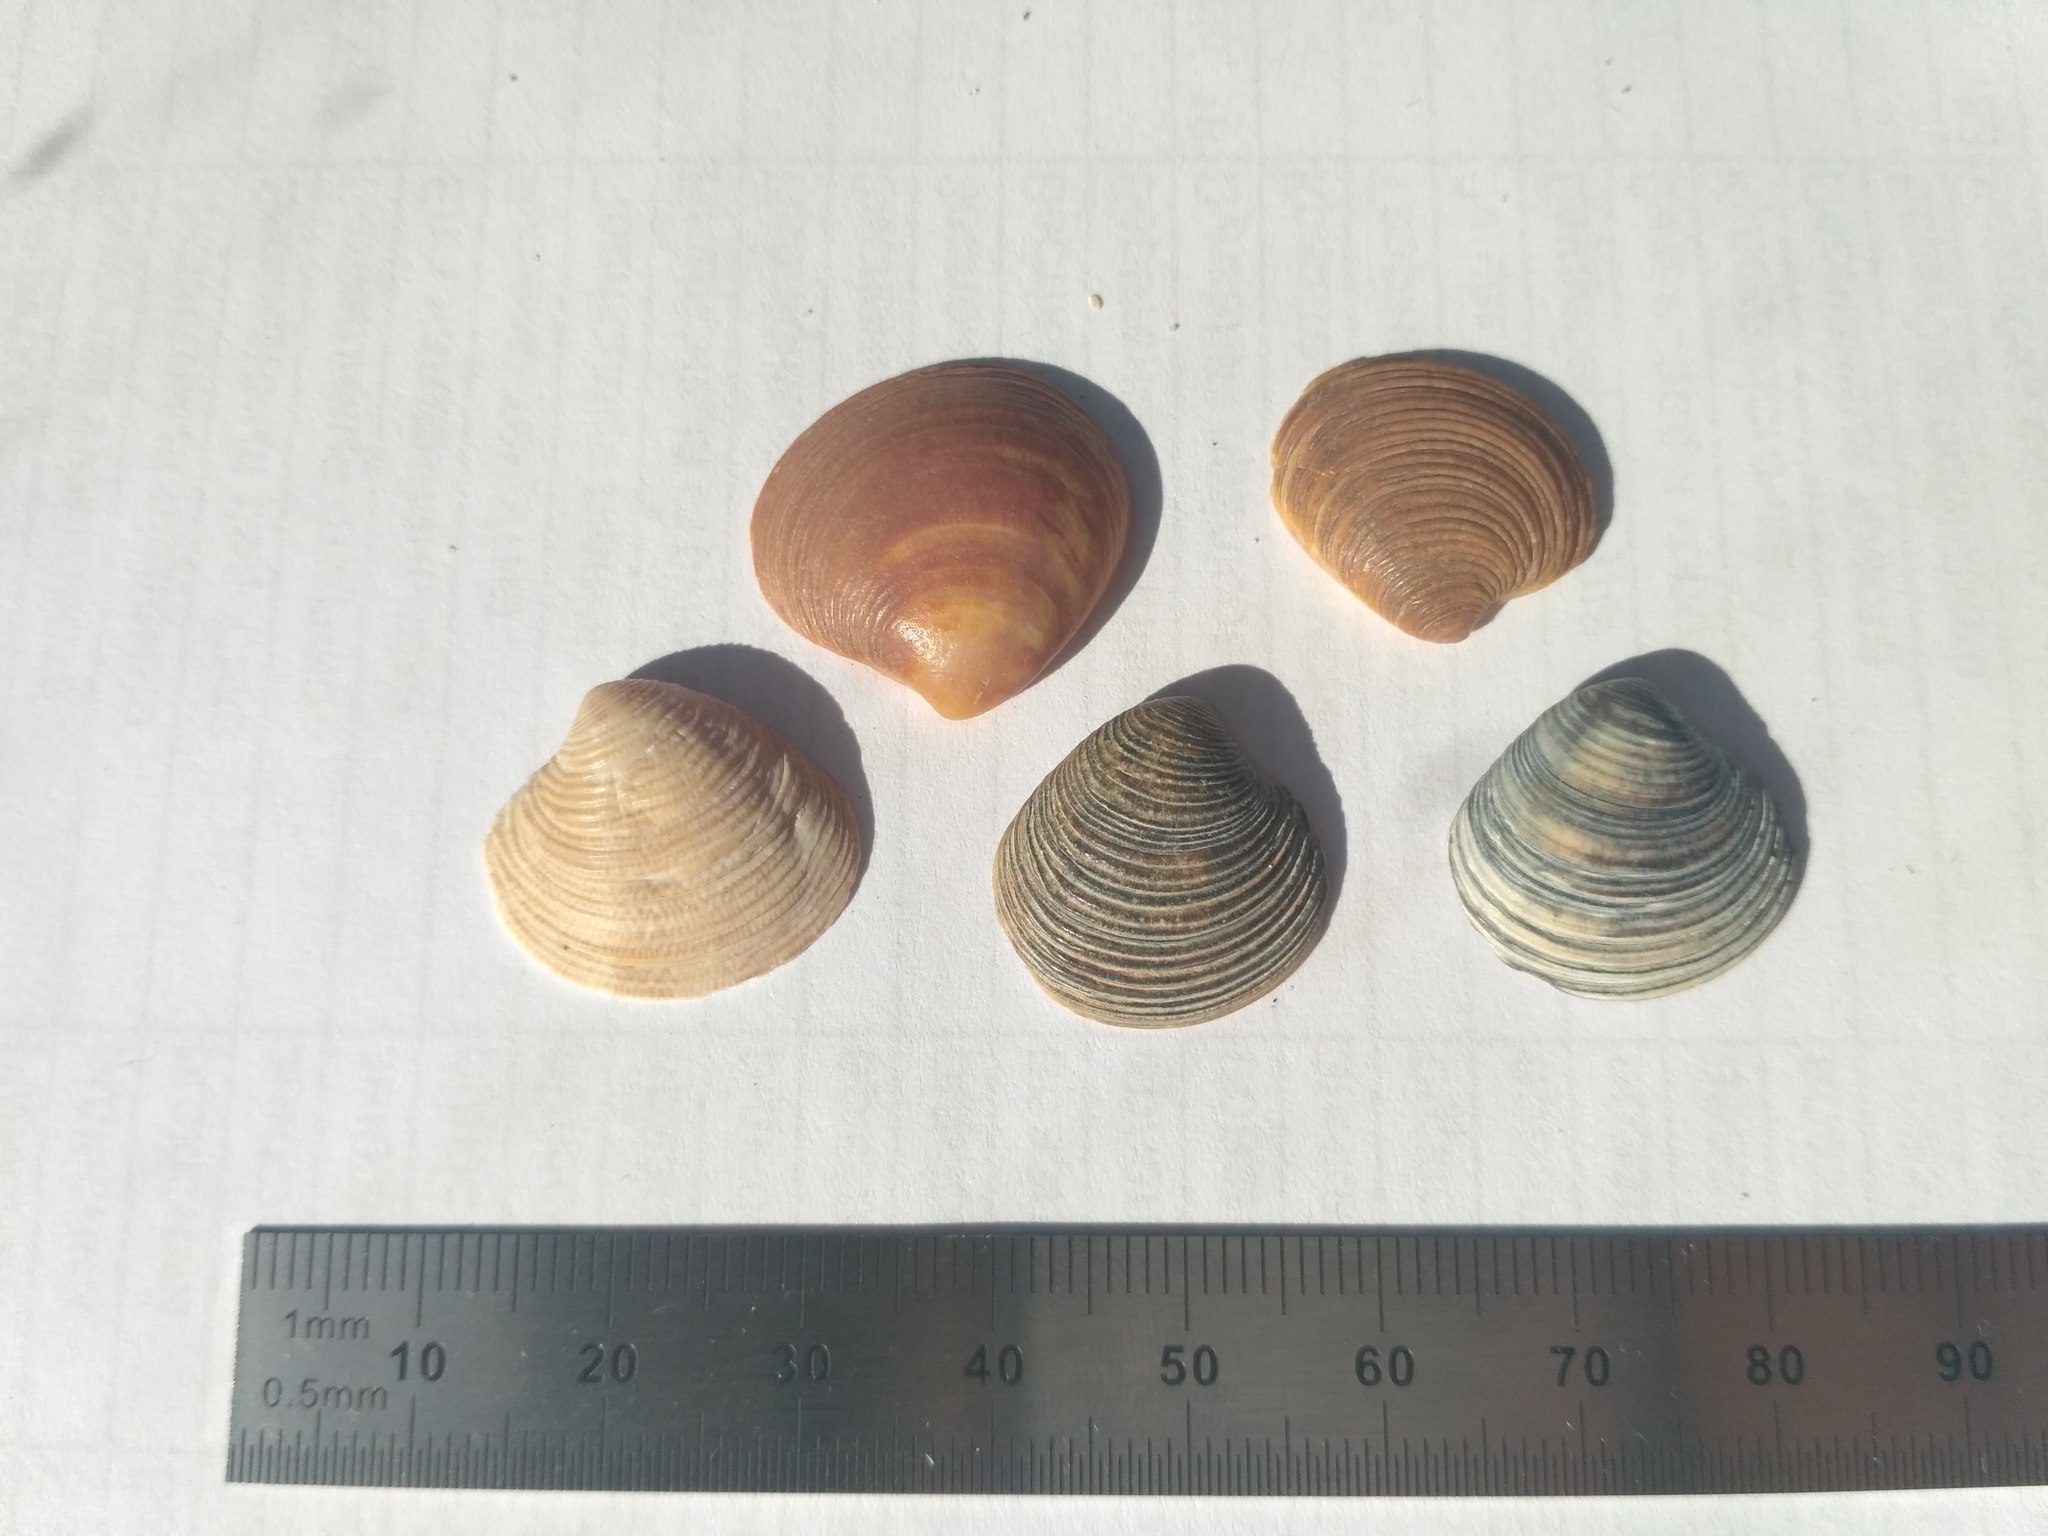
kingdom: Animalia
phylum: Mollusca
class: Bivalvia
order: Venerida
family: Veneridae
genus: Chamelea
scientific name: Chamelea gallina
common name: Chicken venus
